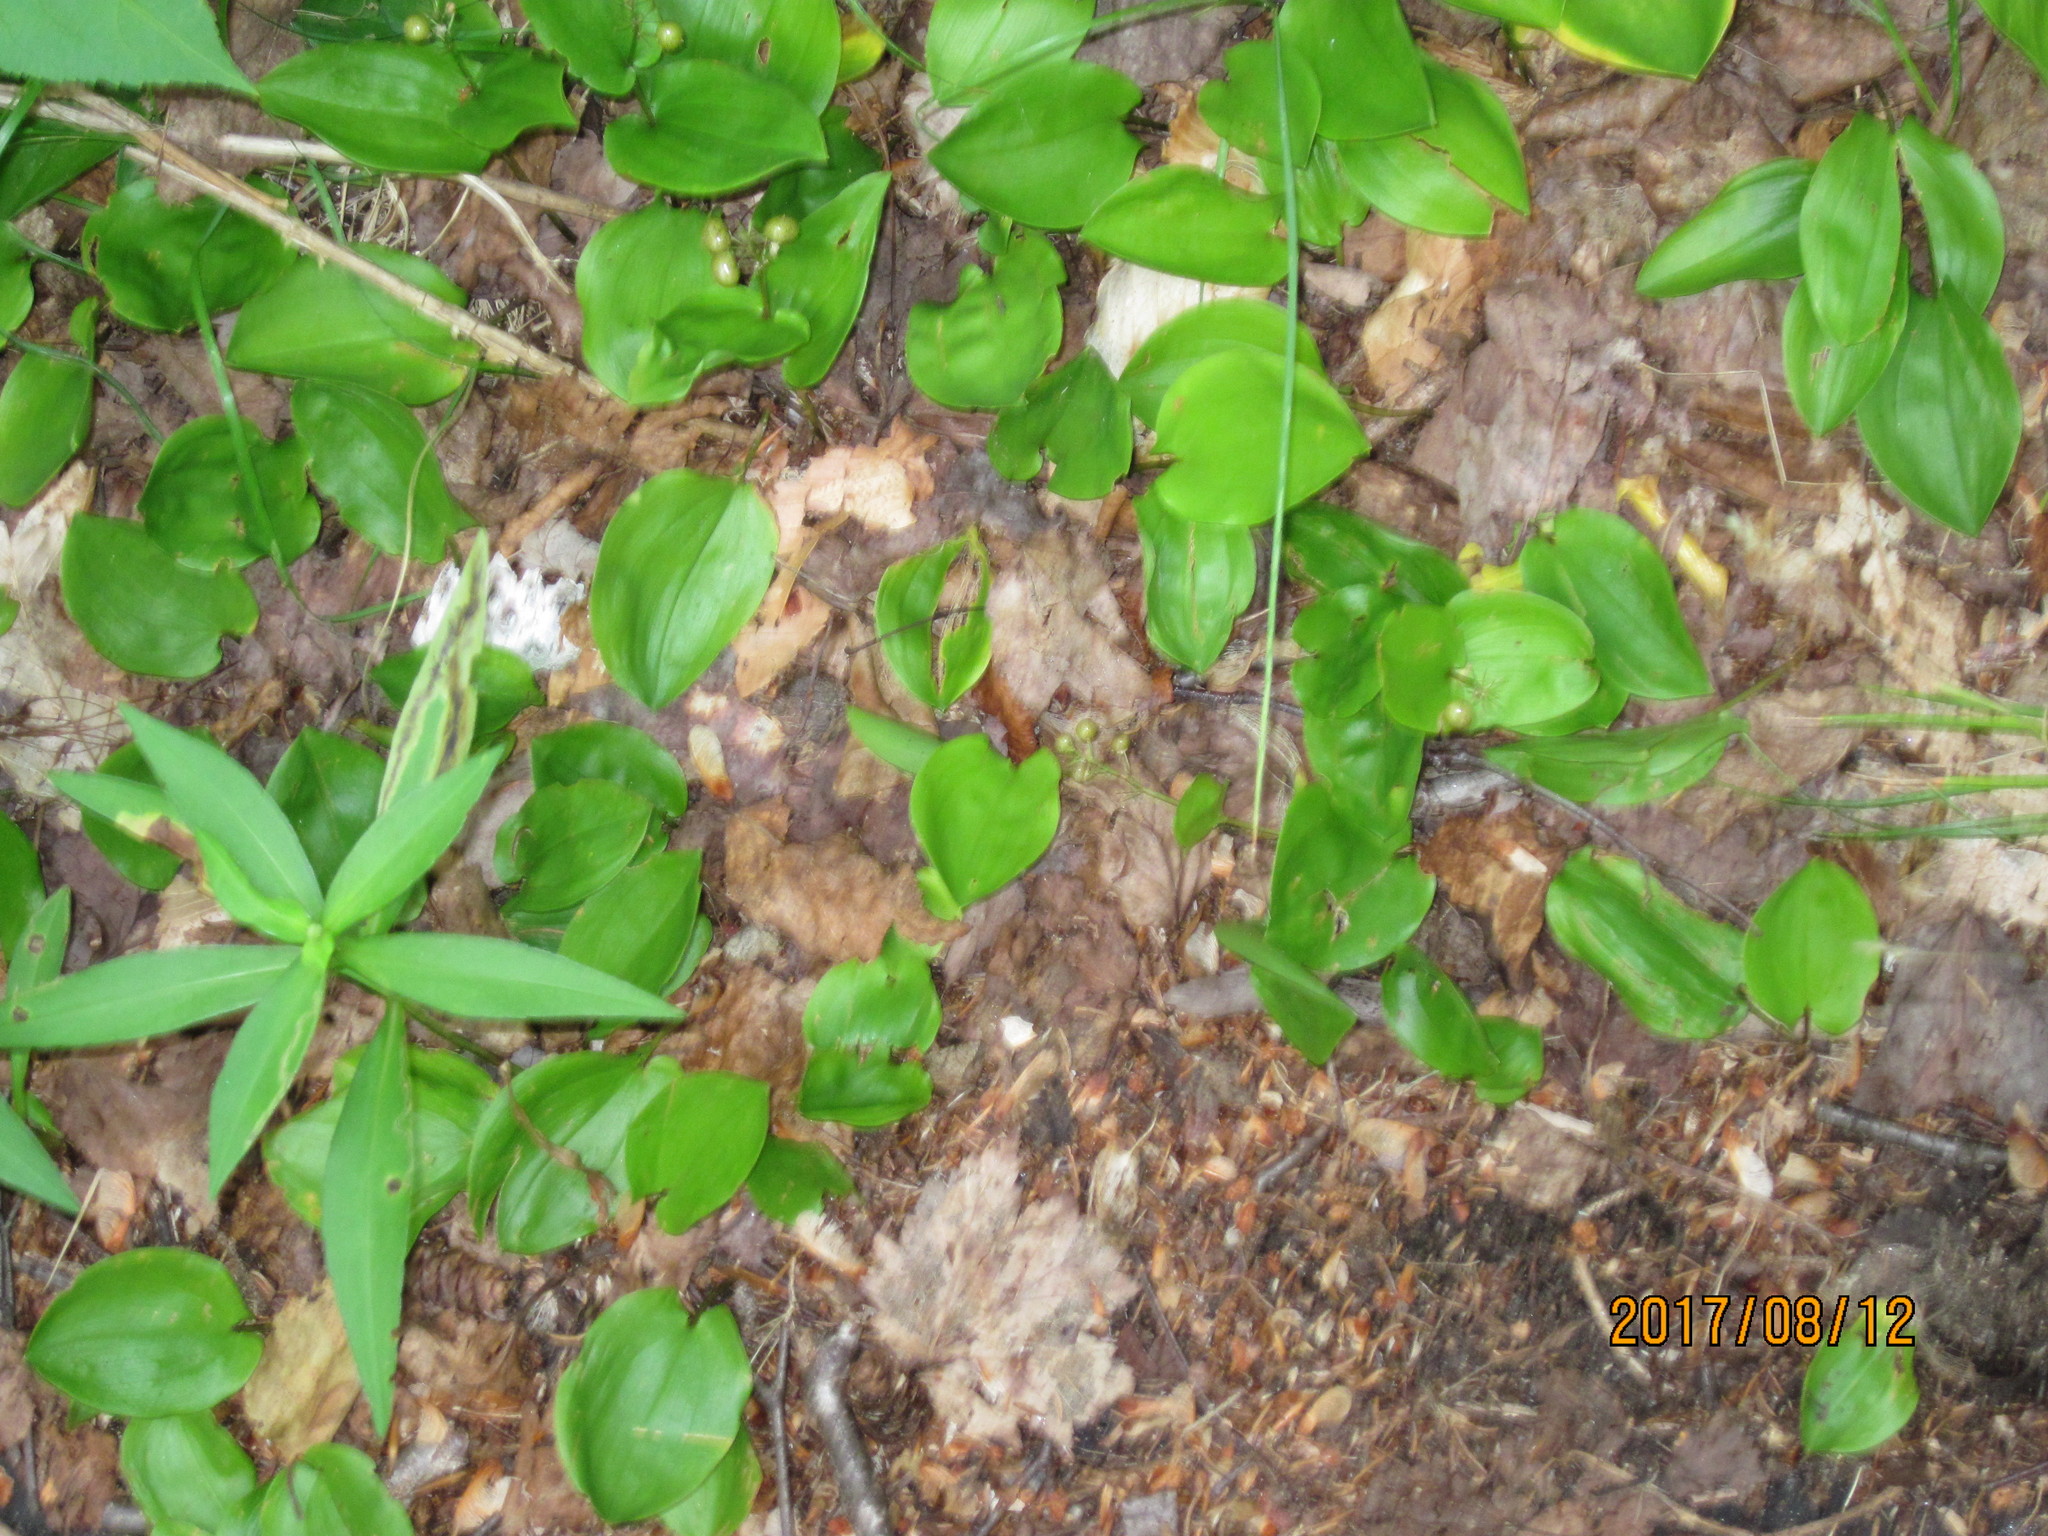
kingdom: Plantae
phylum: Tracheophyta
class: Liliopsida
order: Asparagales
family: Asparagaceae
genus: Maianthemum
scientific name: Maianthemum canadense
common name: False lily-of-the-valley
